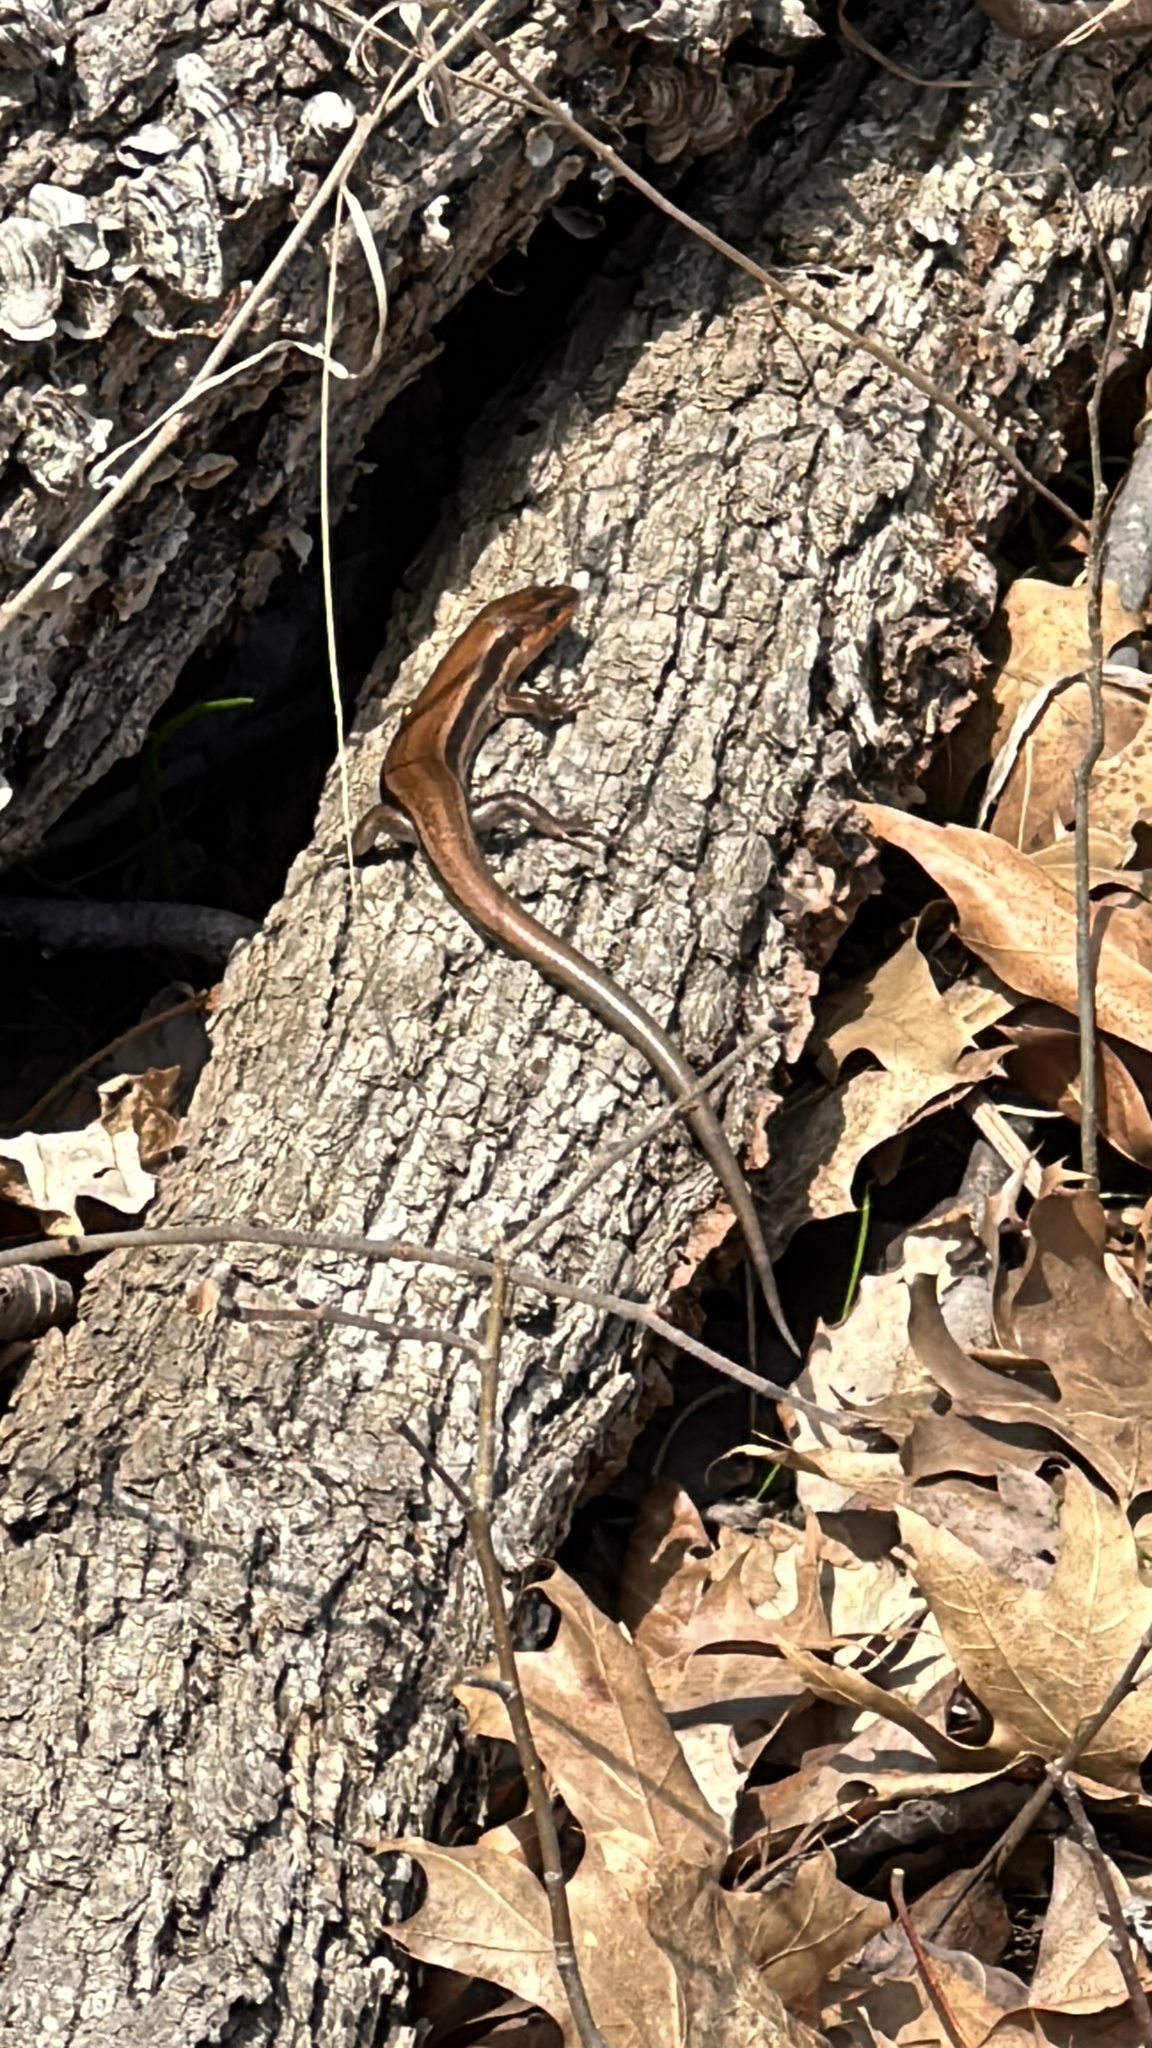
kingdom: Animalia
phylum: Chordata
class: Squamata
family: Scincidae
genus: Plestiodon
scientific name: Plestiodon fasciatus
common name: Five-lined skink
